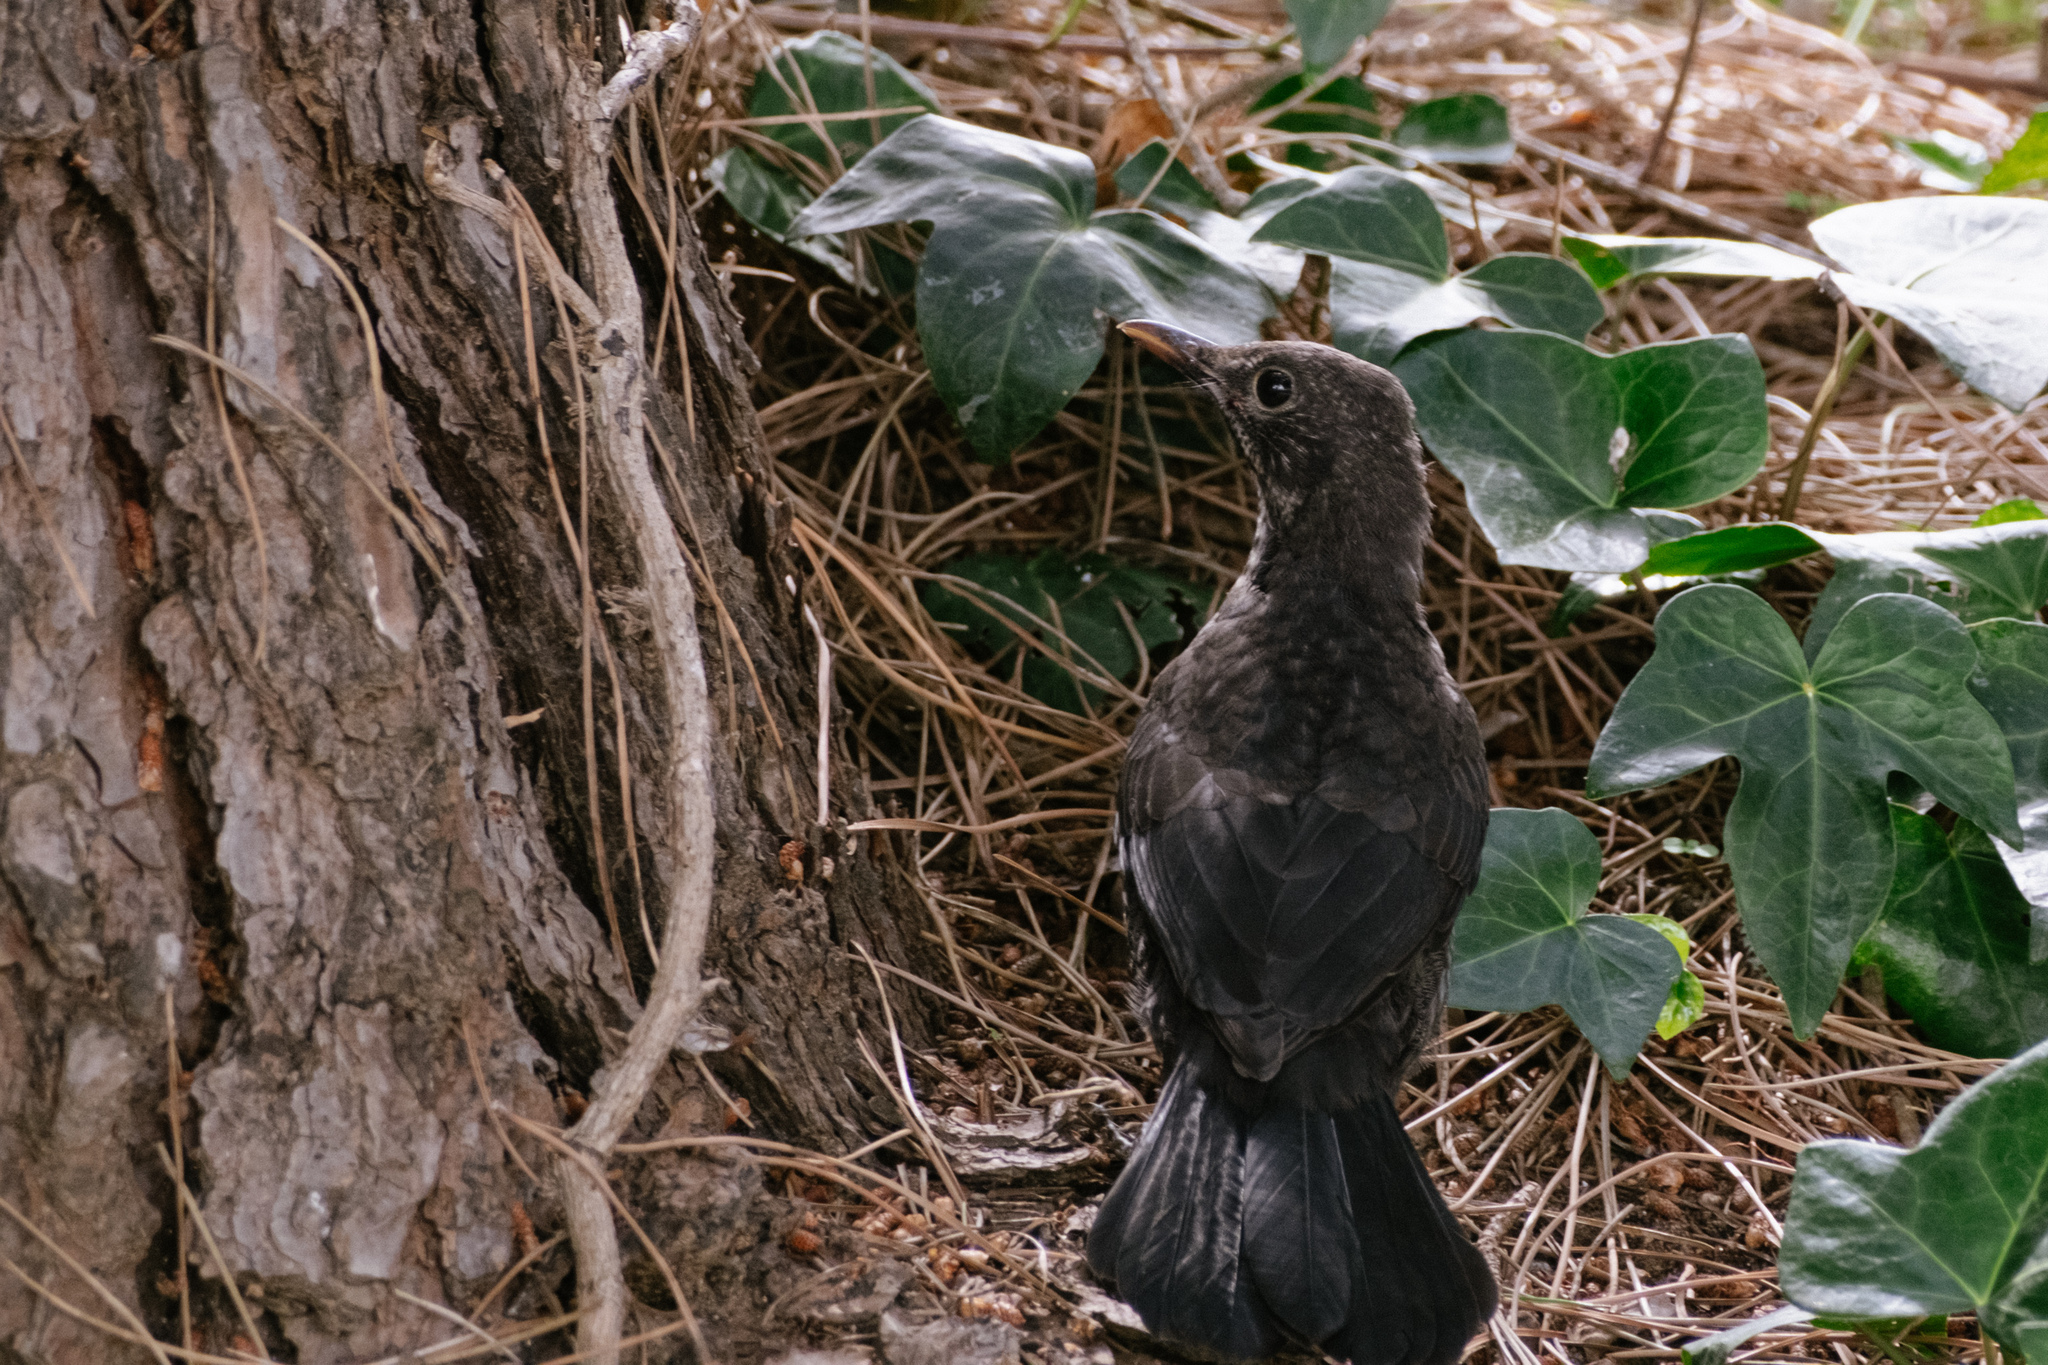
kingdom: Animalia
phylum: Chordata
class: Aves
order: Passeriformes
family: Turdidae
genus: Turdus
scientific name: Turdus merula
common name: Common blackbird
